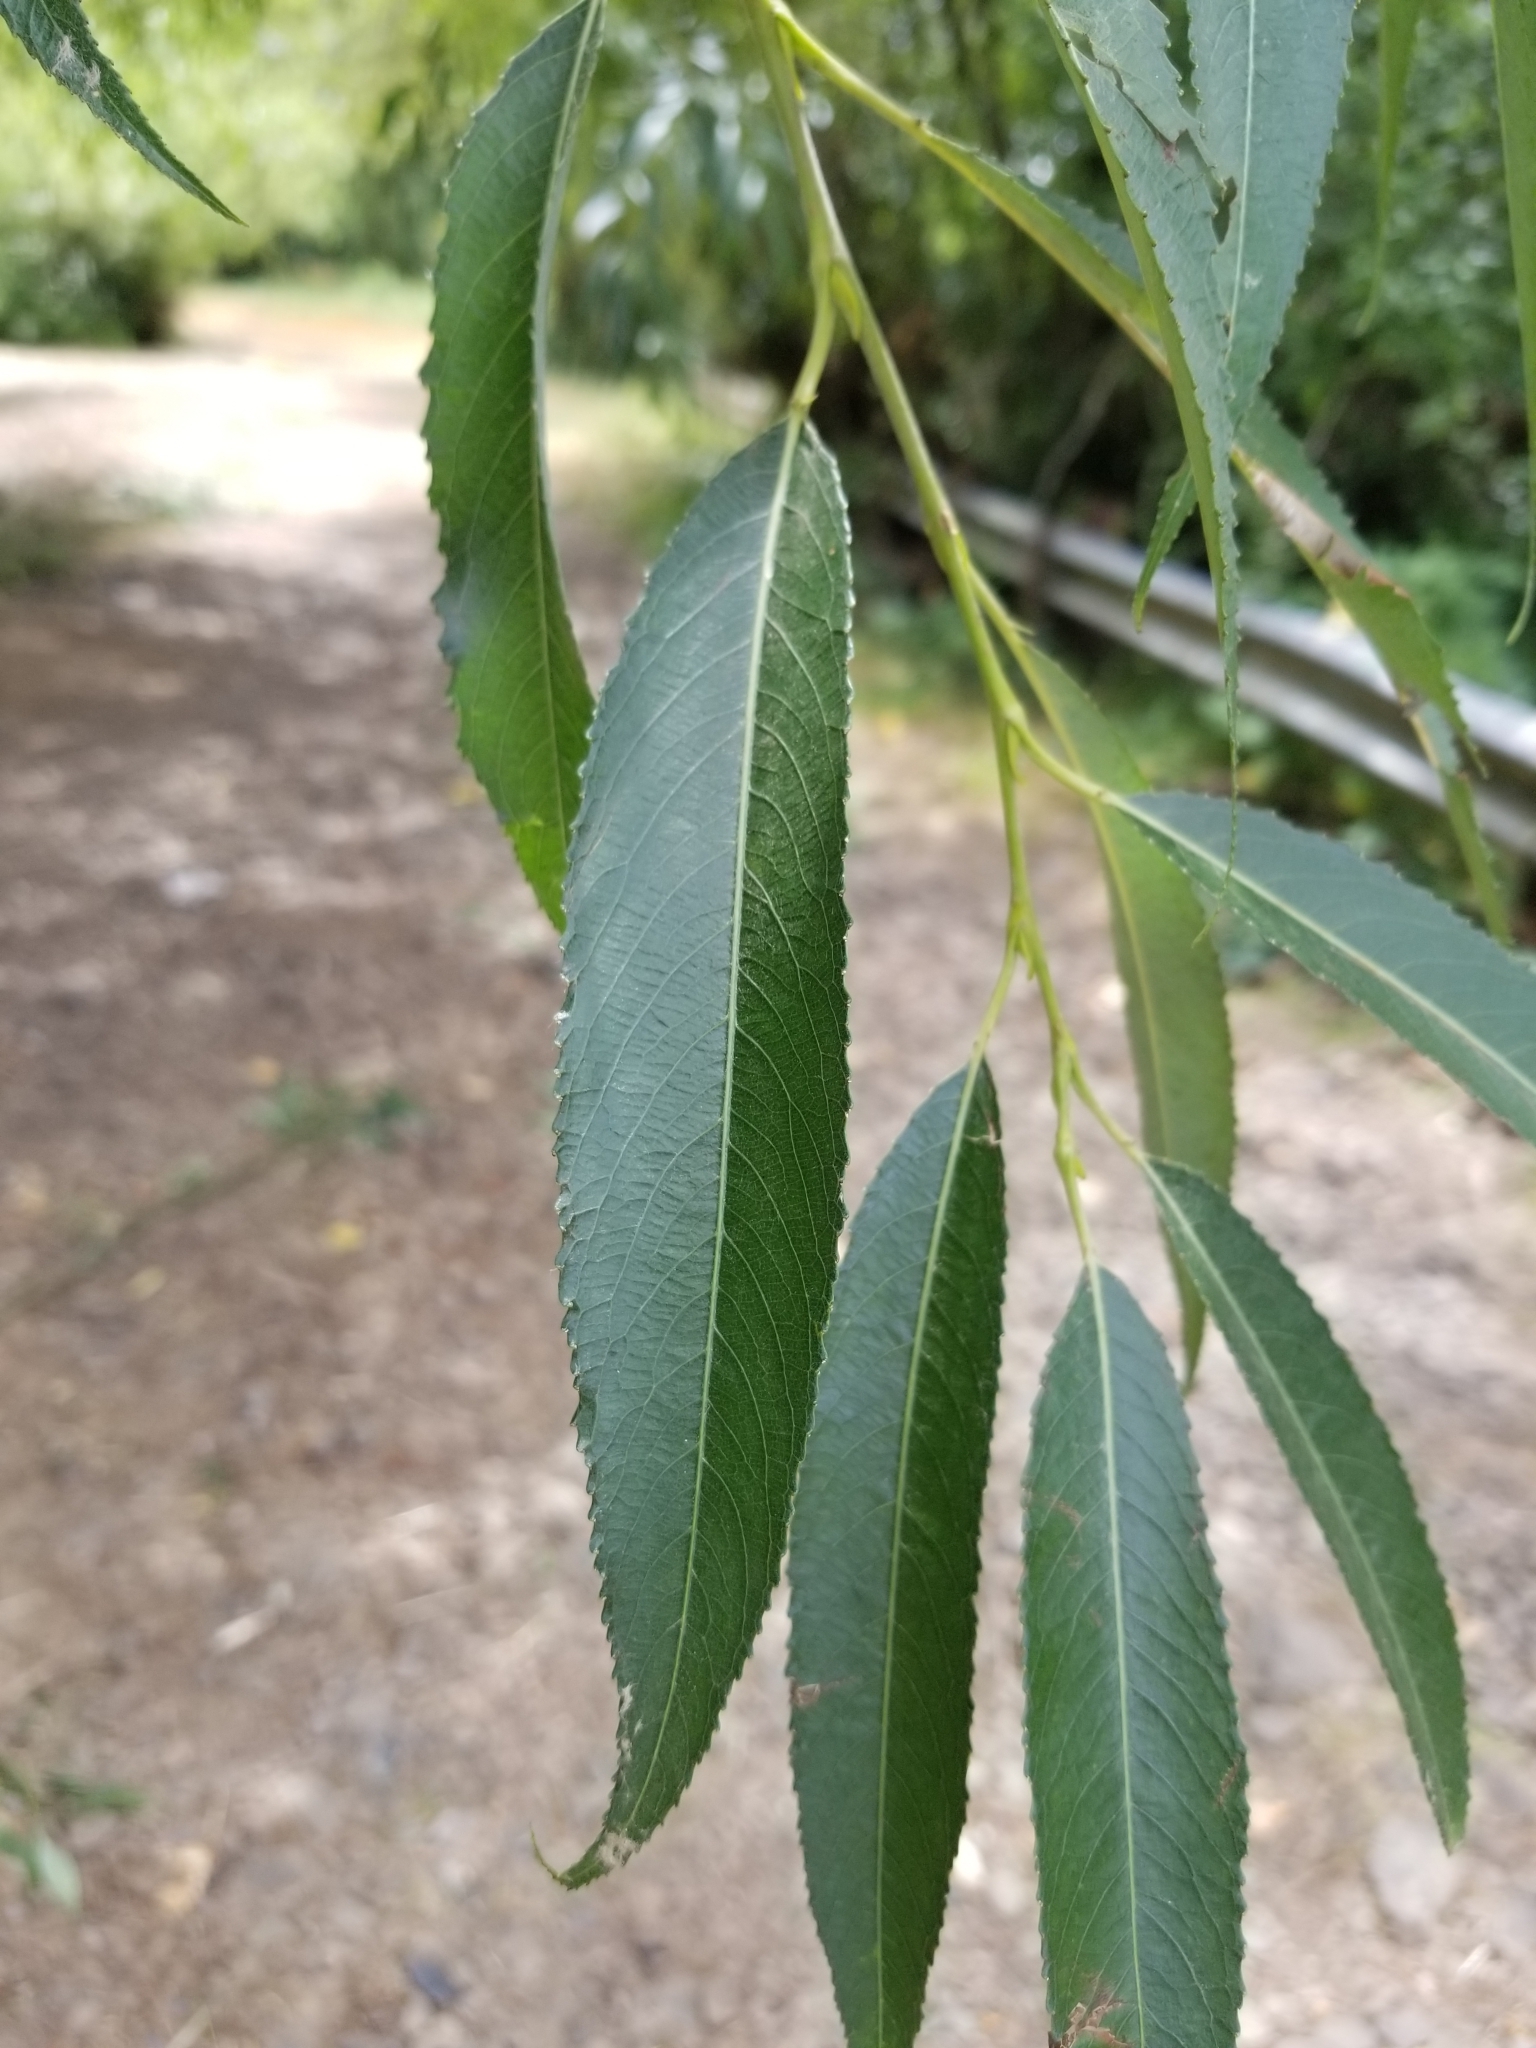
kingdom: Plantae
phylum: Tracheophyta
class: Magnoliopsida
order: Malpighiales
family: Salicaceae
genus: Salix
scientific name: Salix lucida
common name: Shining willow
